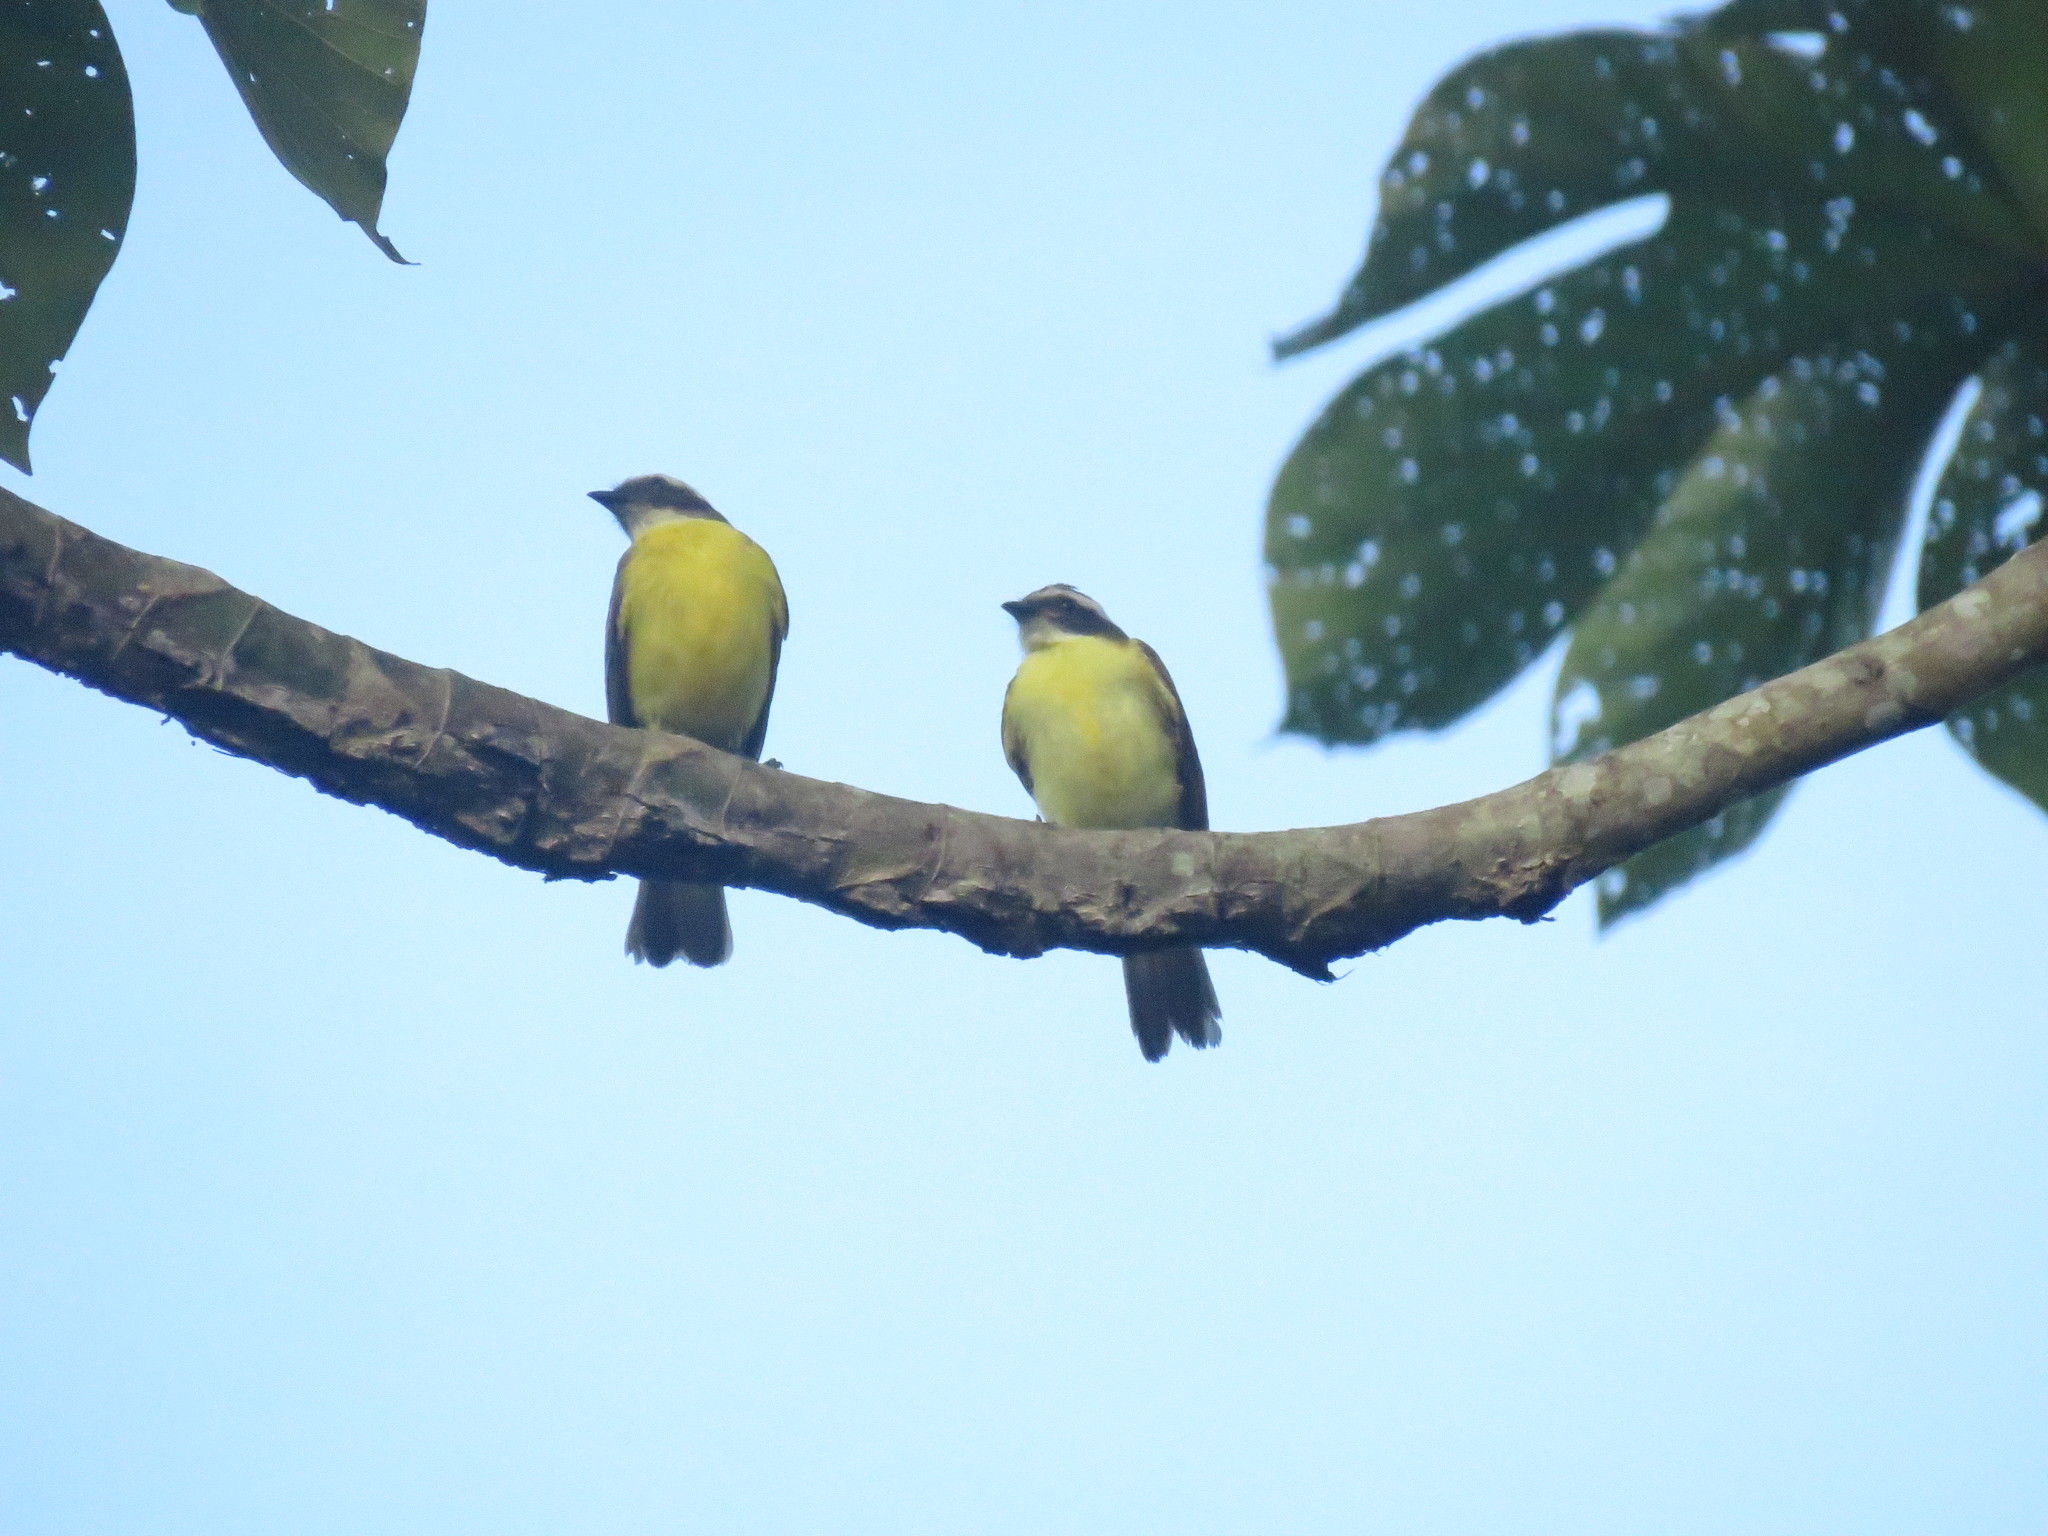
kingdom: Animalia
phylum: Chordata
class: Aves
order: Passeriformes
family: Tyrannidae
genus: Myiozetetes
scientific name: Myiozetetes similis
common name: Social flycatcher
